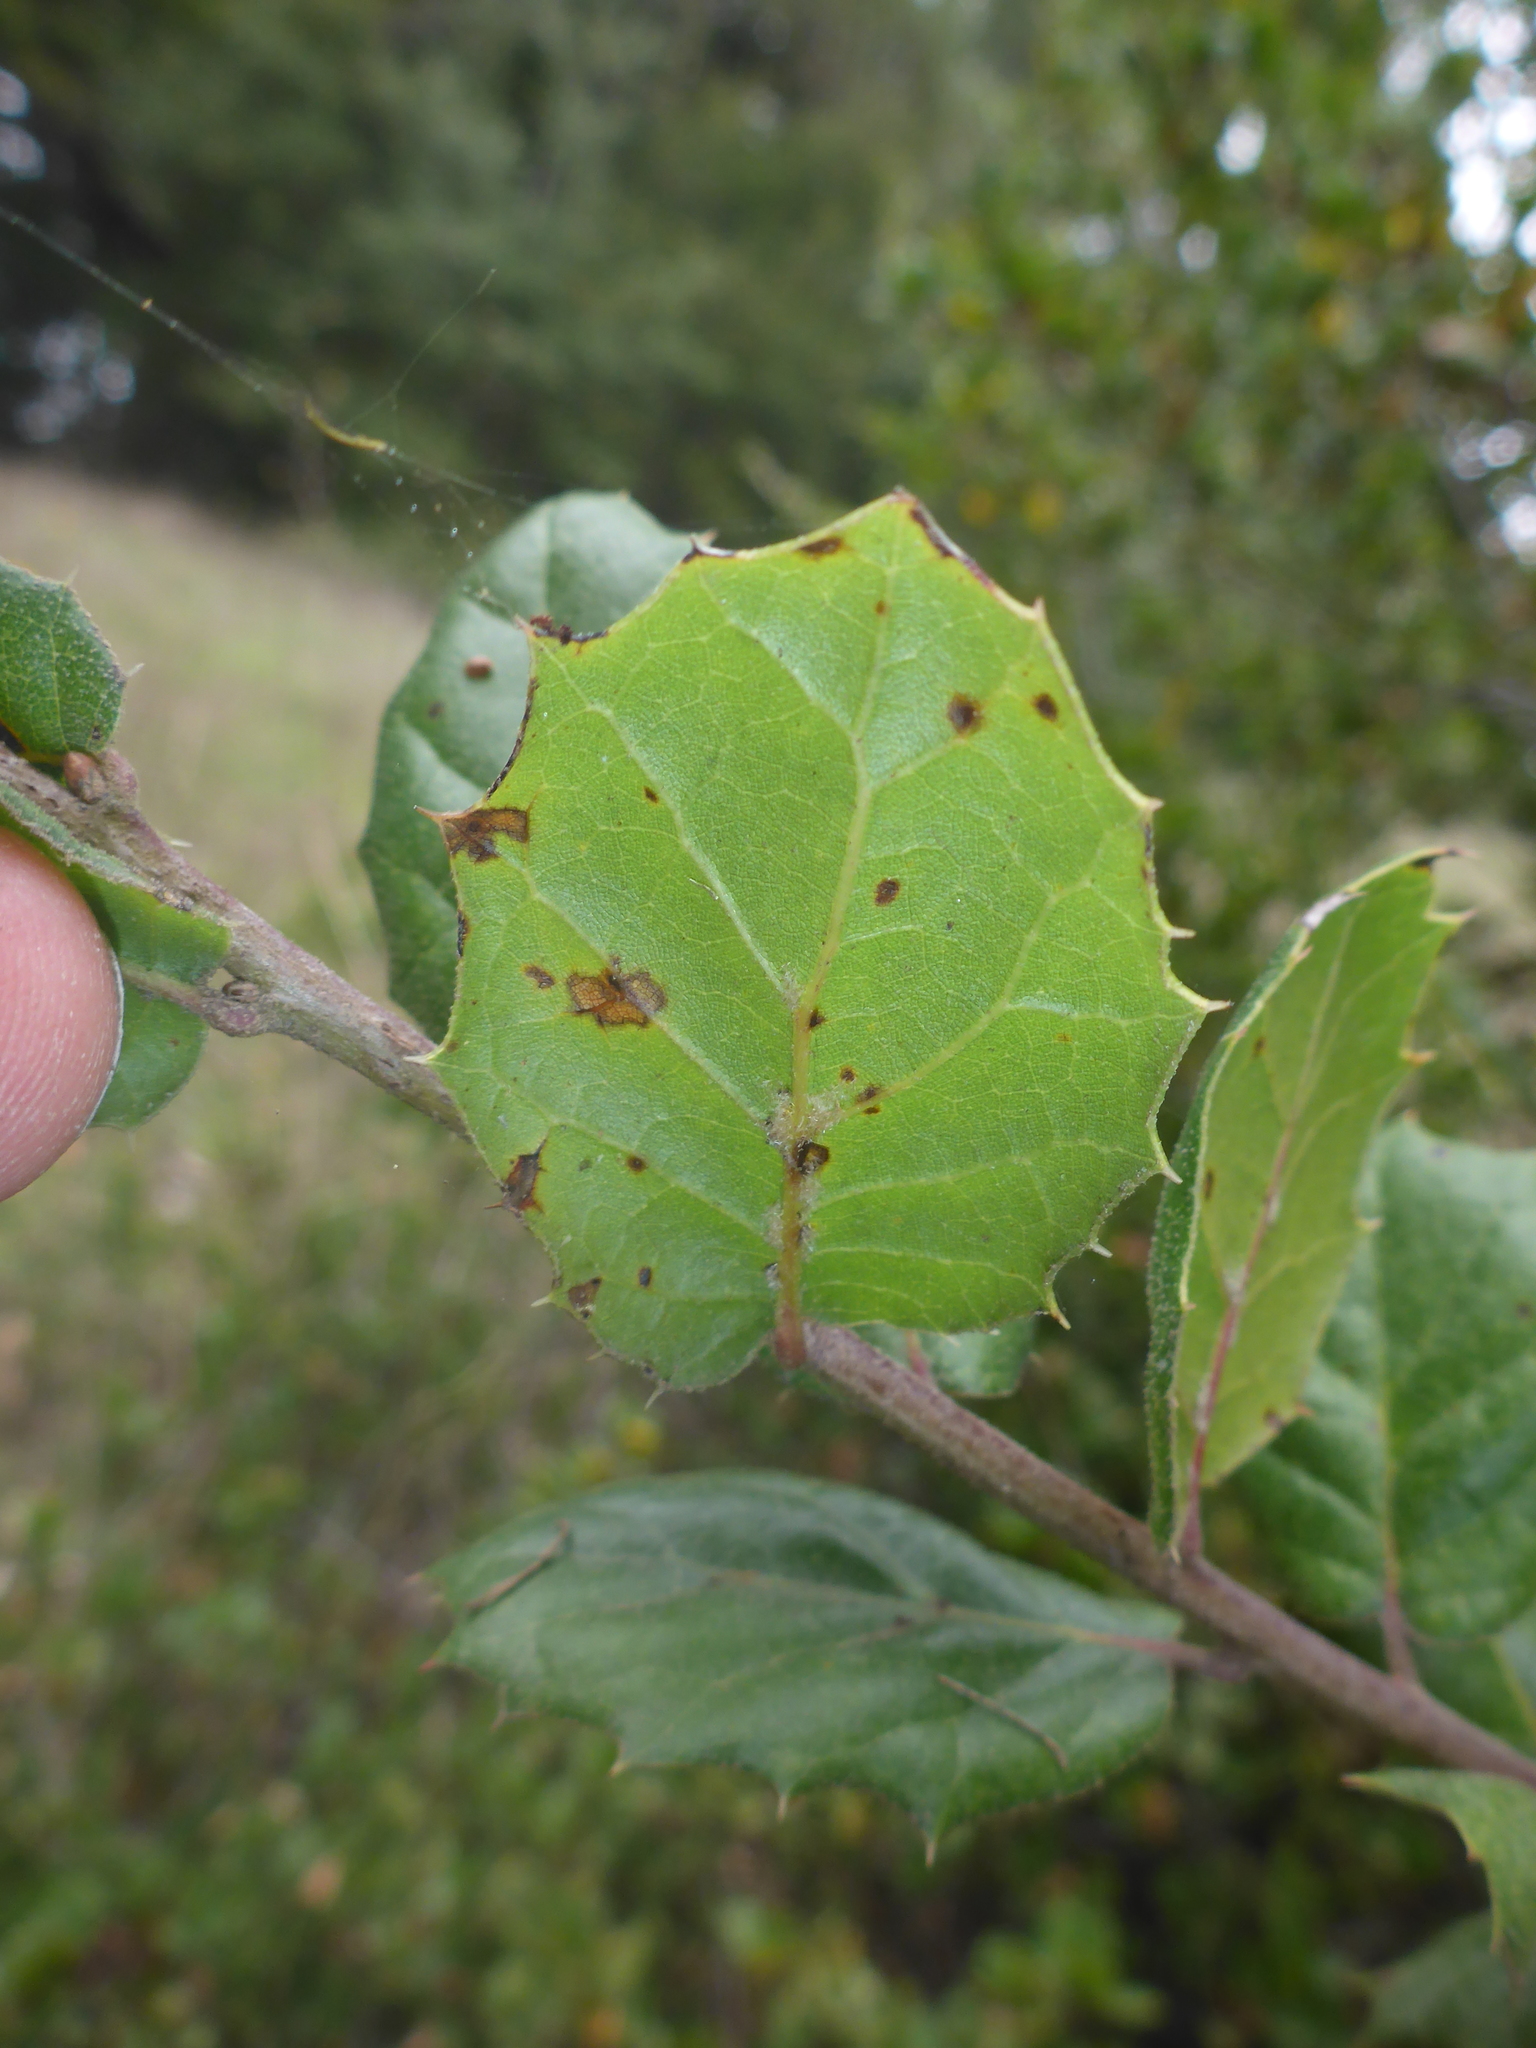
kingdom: Plantae
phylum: Tracheophyta
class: Magnoliopsida
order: Fagales
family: Fagaceae
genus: Quercus
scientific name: Quercus agrifolia
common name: California live oak
